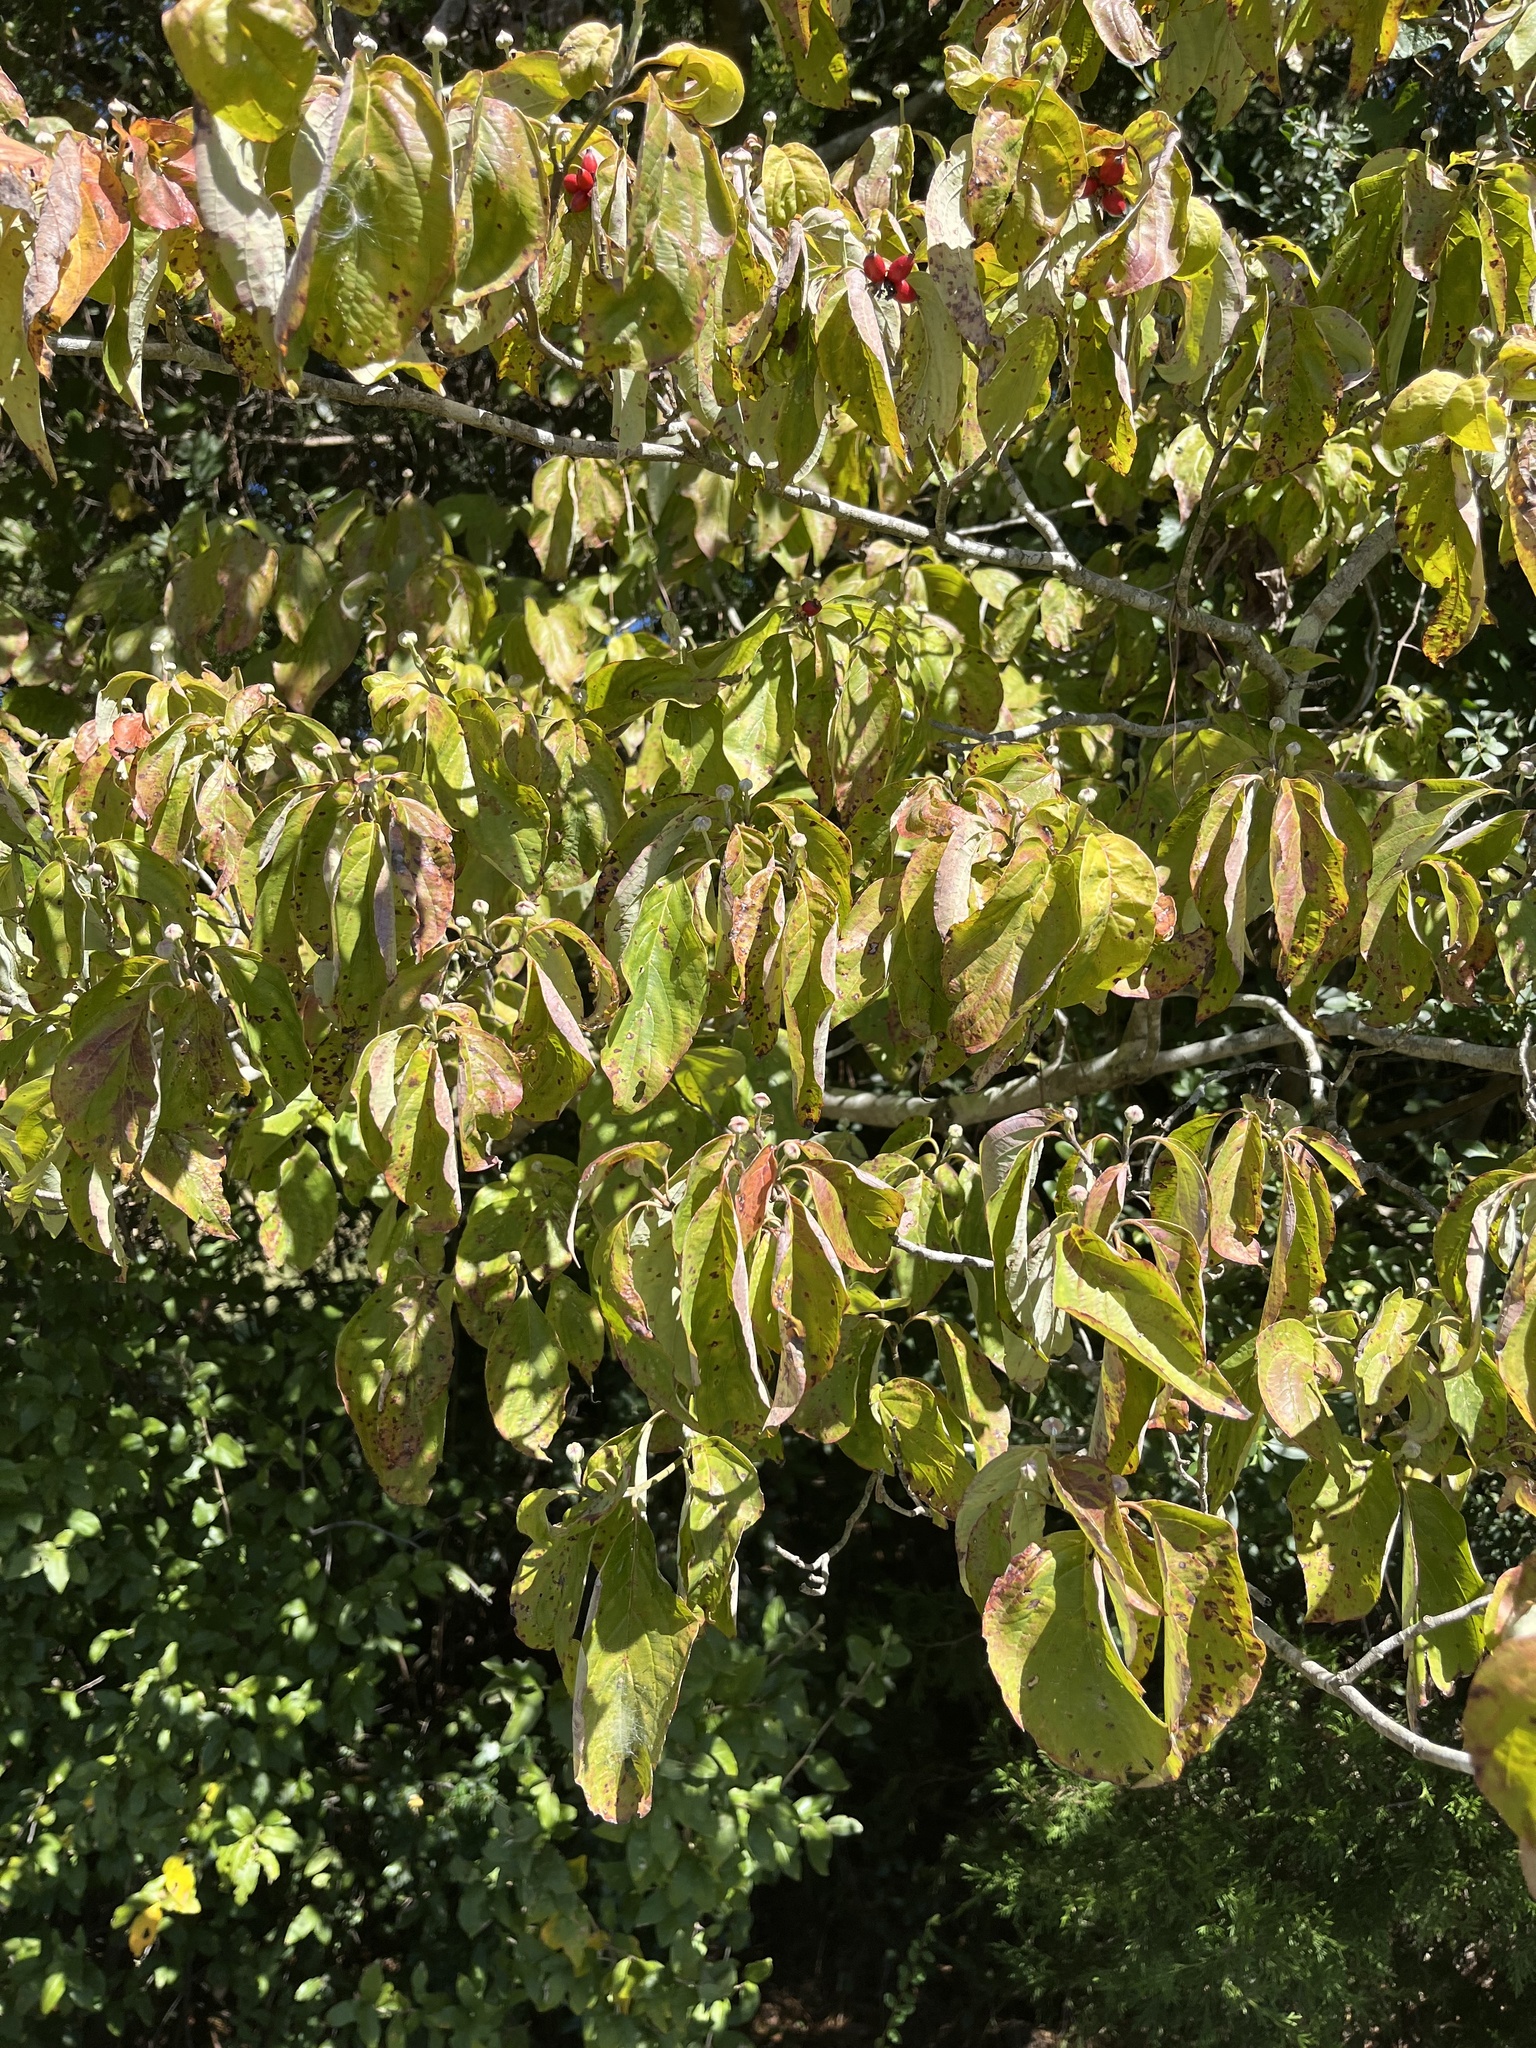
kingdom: Plantae
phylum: Tracheophyta
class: Magnoliopsida
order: Cornales
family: Cornaceae
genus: Cornus
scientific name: Cornus florida
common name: Flowering dogwood
